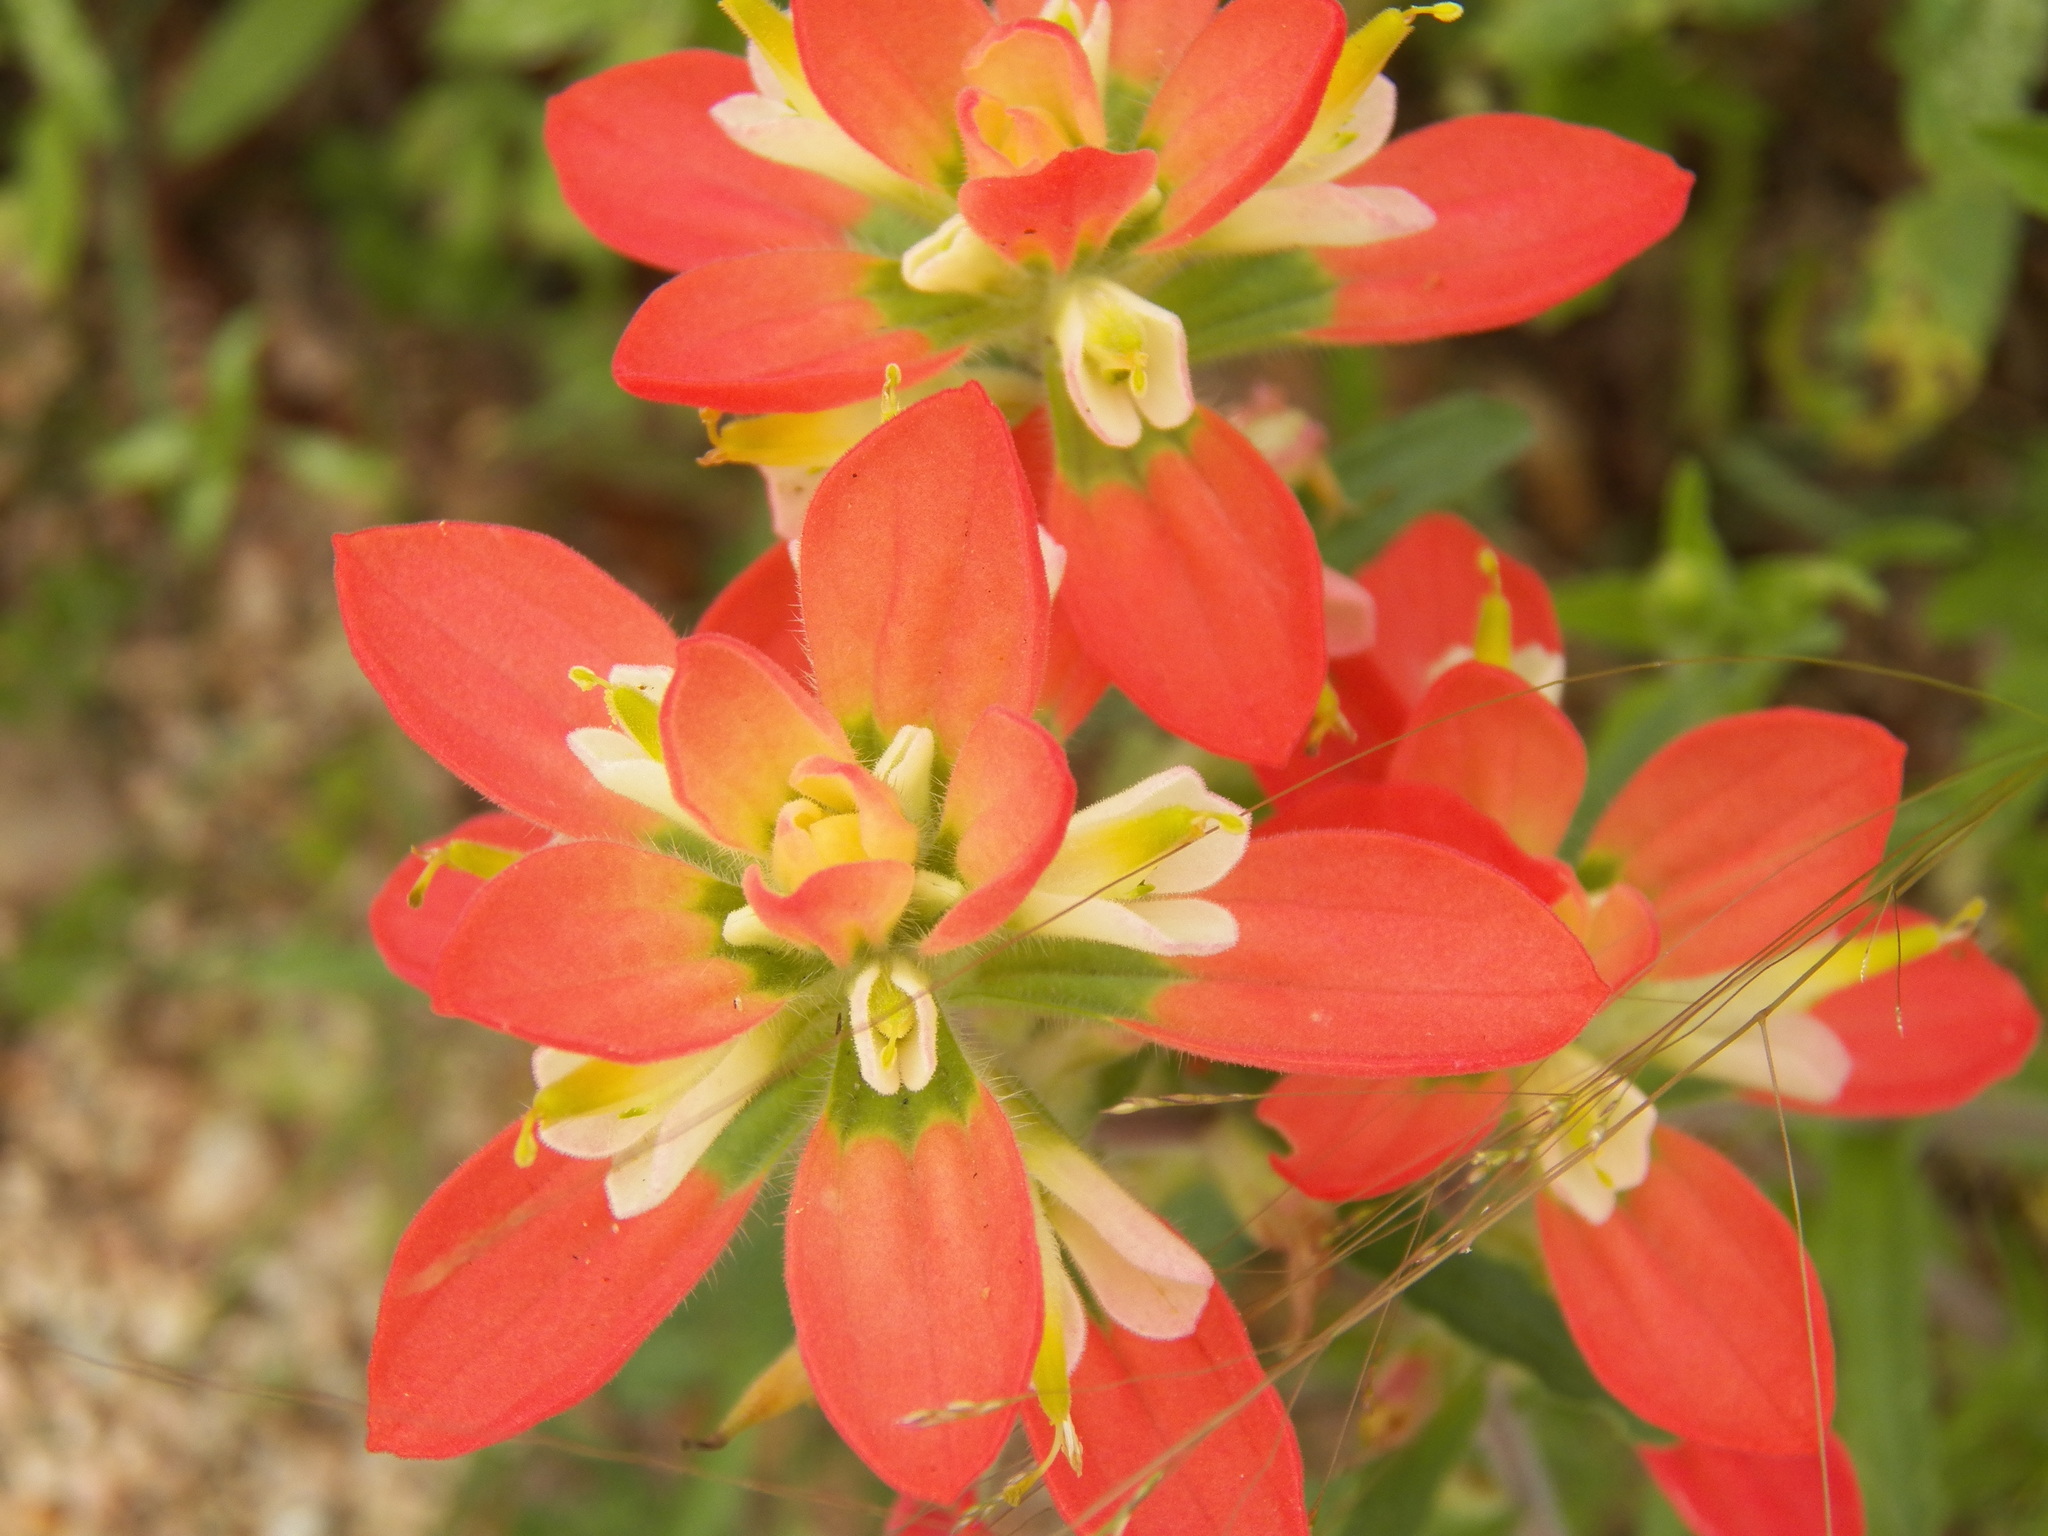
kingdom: Plantae
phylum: Tracheophyta
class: Magnoliopsida
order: Lamiales
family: Orobanchaceae
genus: Castilleja
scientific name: Castilleja indivisa
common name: Texas paintbrush
